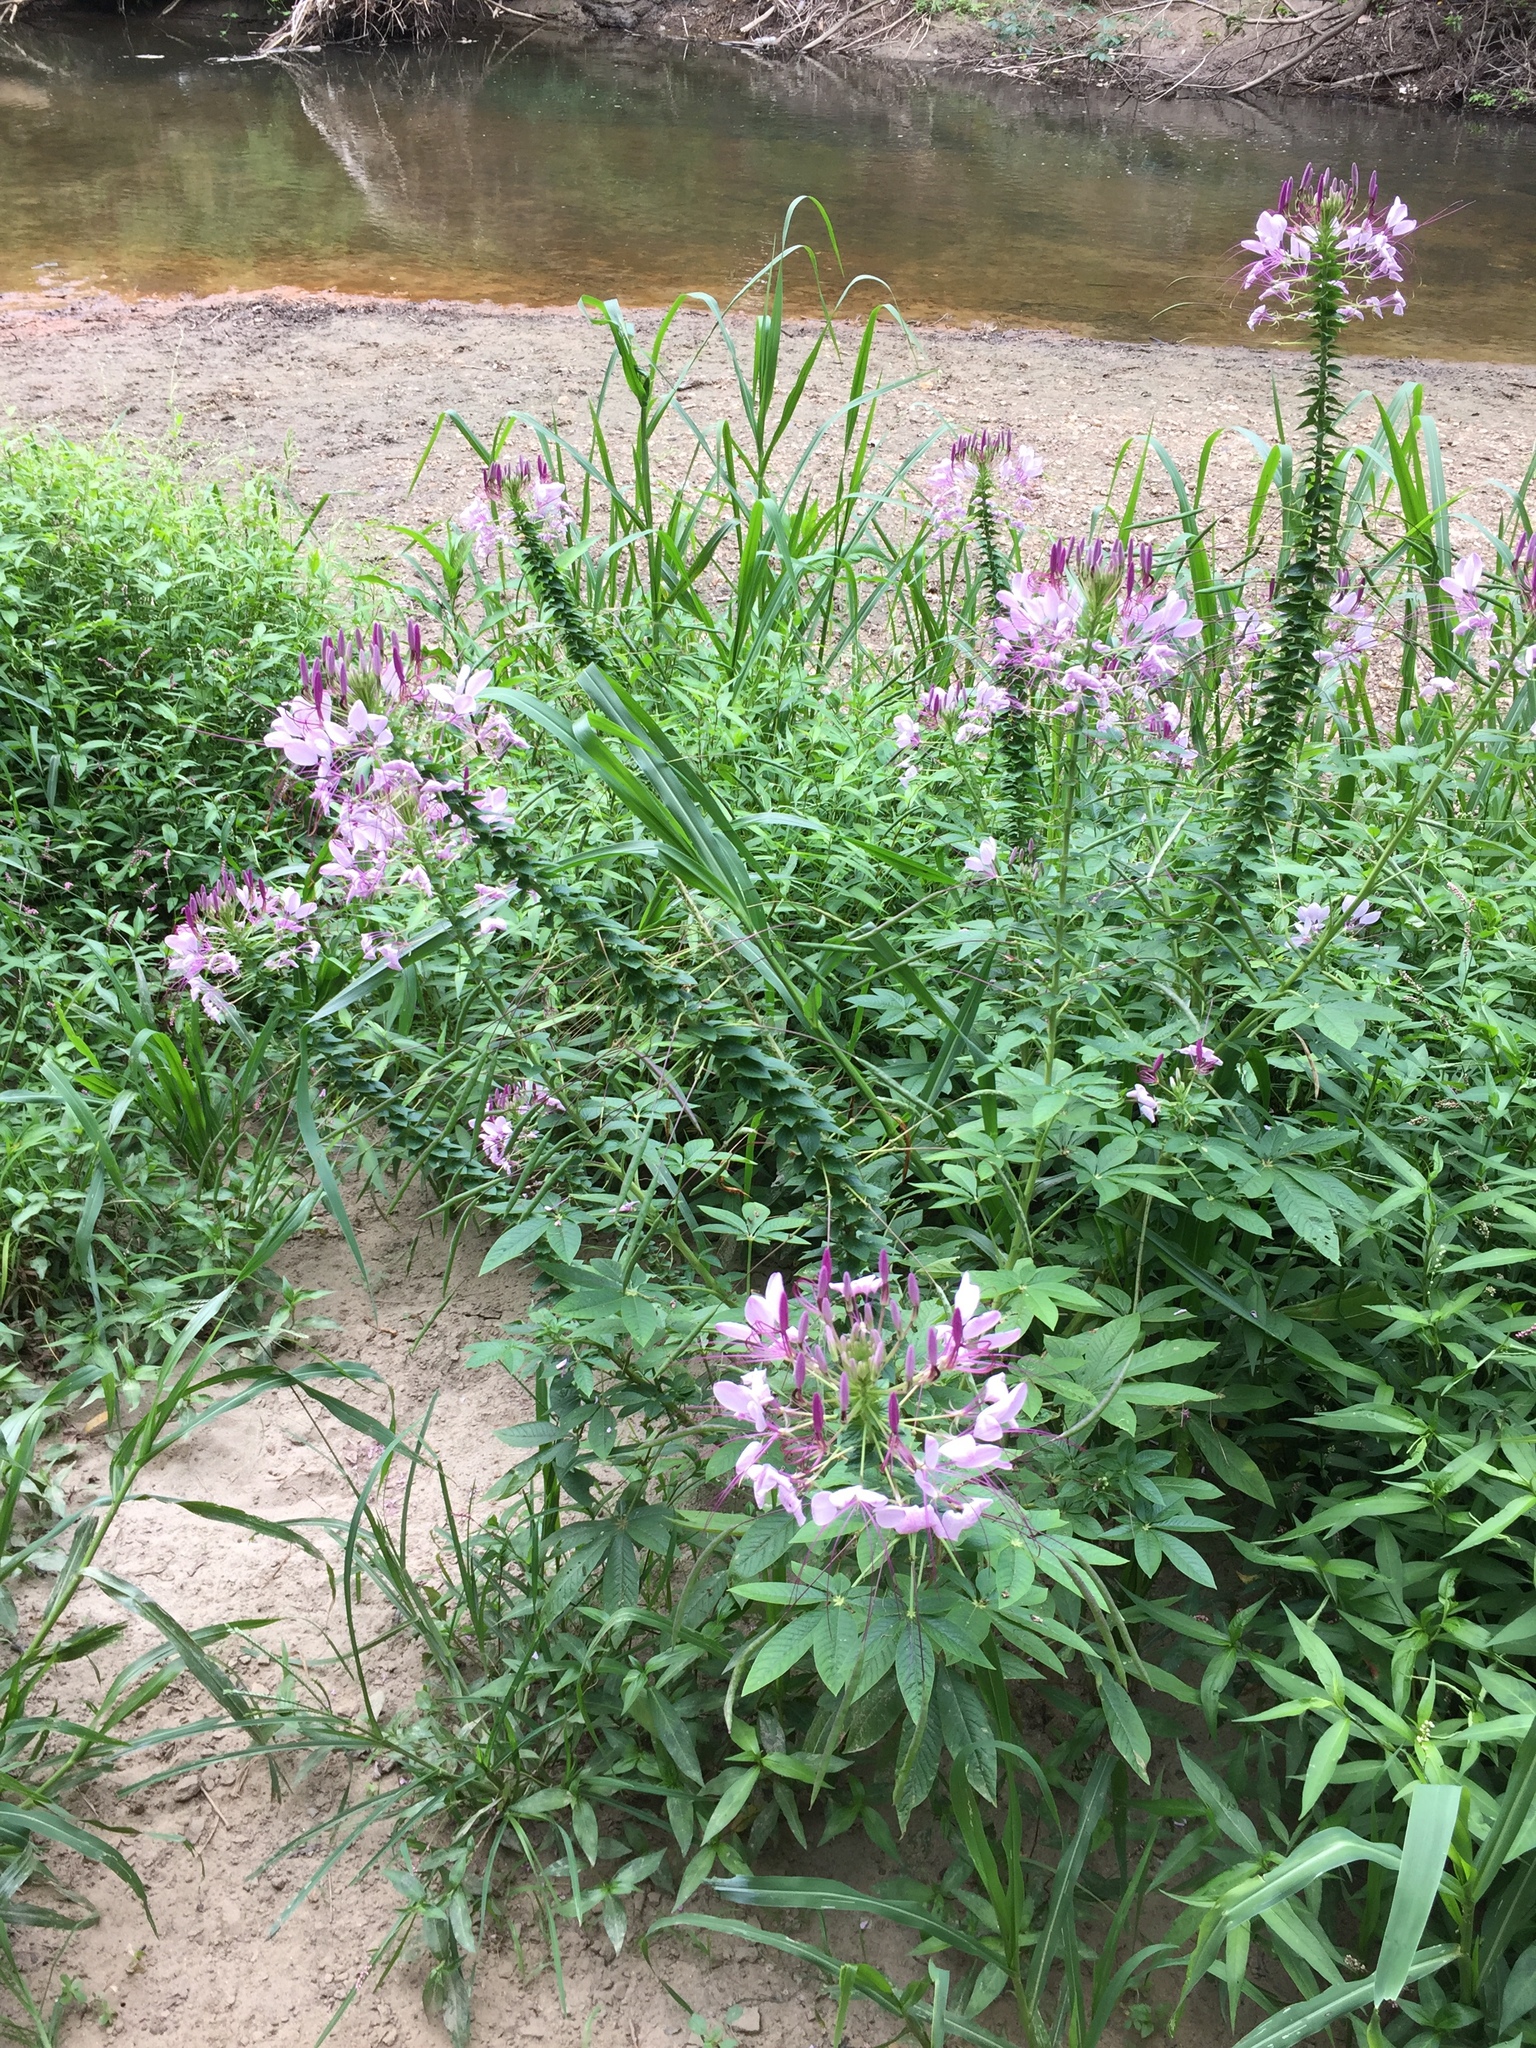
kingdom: Plantae
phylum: Tracheophyta
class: Magnoliopsida
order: Brassicales
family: Cleomaceae
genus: Tarenaya
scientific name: Tarenaya houtteana
